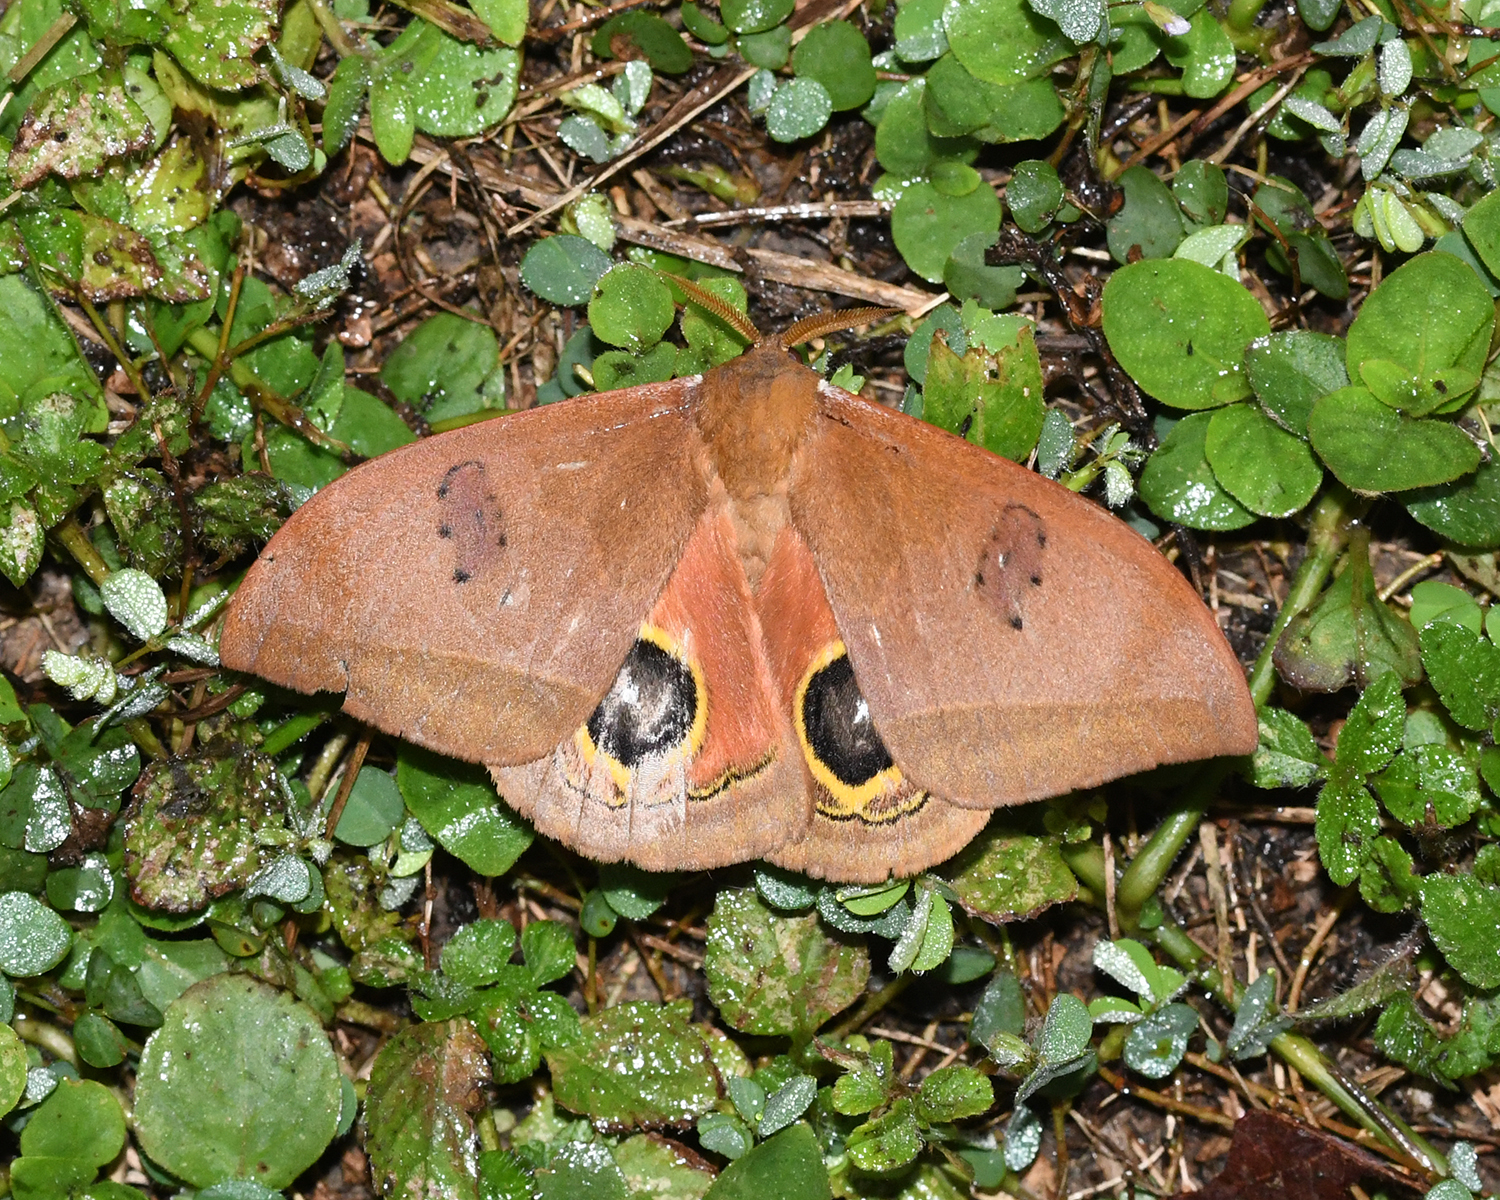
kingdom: Animalia
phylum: Arthropoda
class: Insecta
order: Lepidoptera
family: Saturniidae
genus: Automeris
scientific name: Automeris midea
